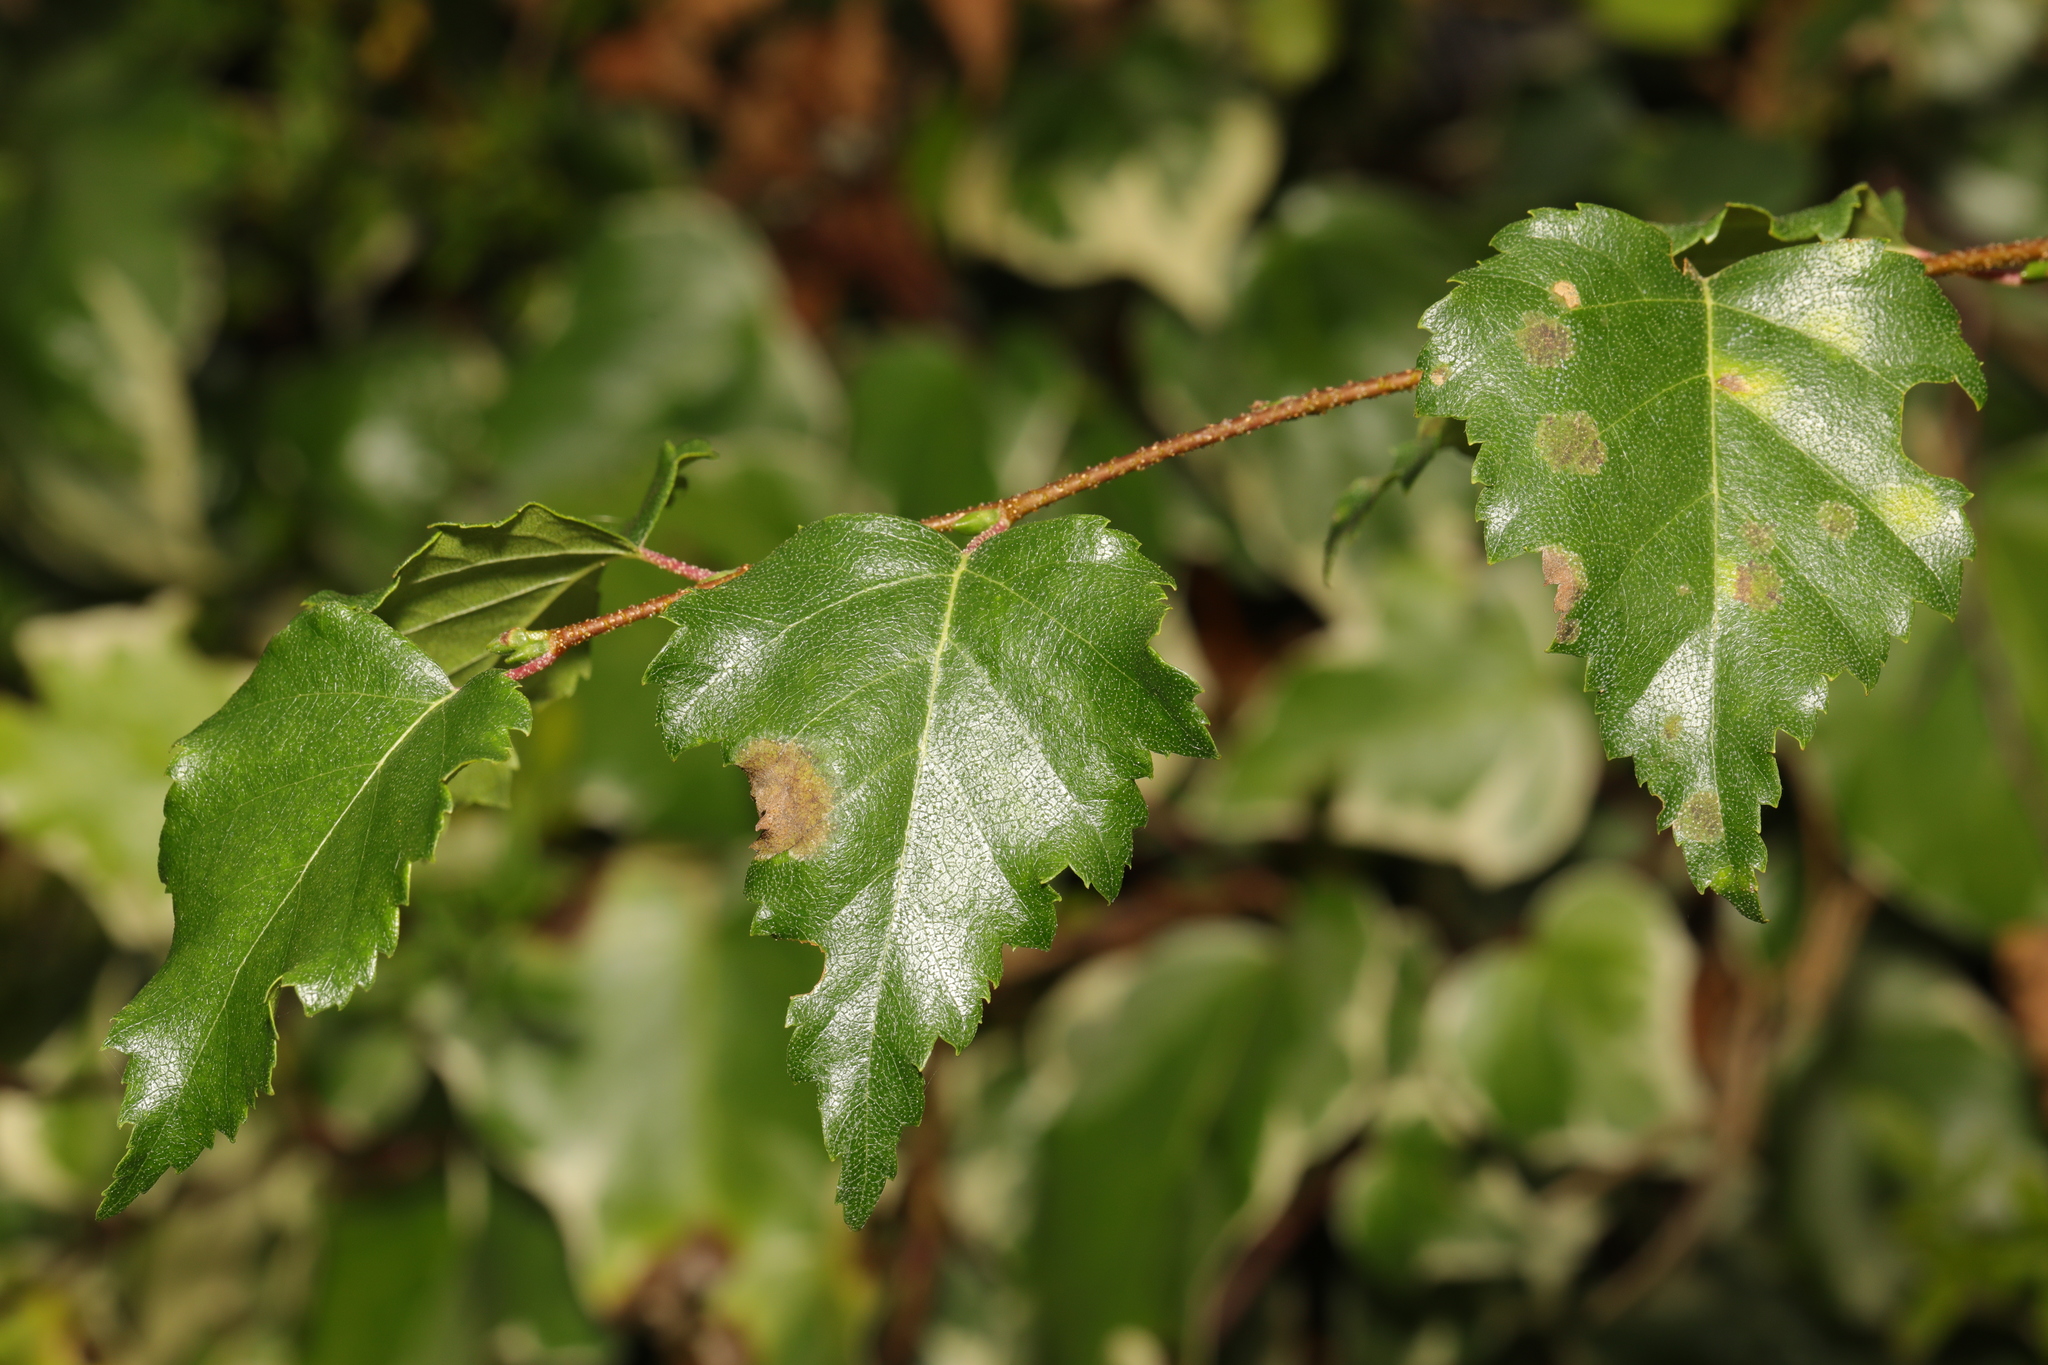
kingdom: Plantae
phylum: Tracheophyta
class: Magnoliopsida
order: Fagales
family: Betulaceae
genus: Betula
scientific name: Betula pendula
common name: Silver birch
